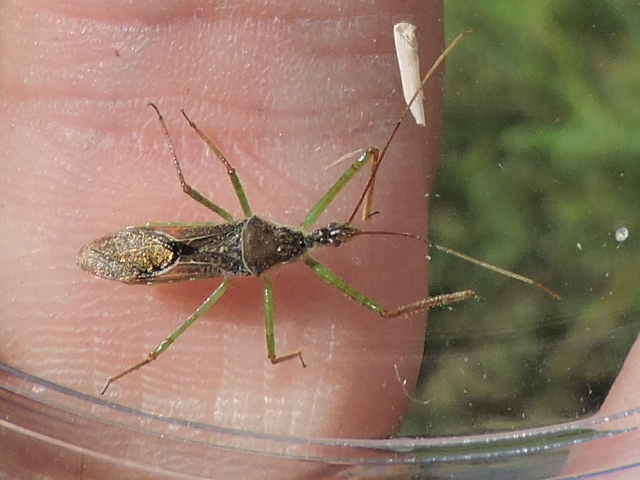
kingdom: Animalia
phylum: Arthropoda
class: Insecta
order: Hemiptera
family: Reduviidae
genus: Zelus
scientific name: Zelus renardii
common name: Assassin bug
